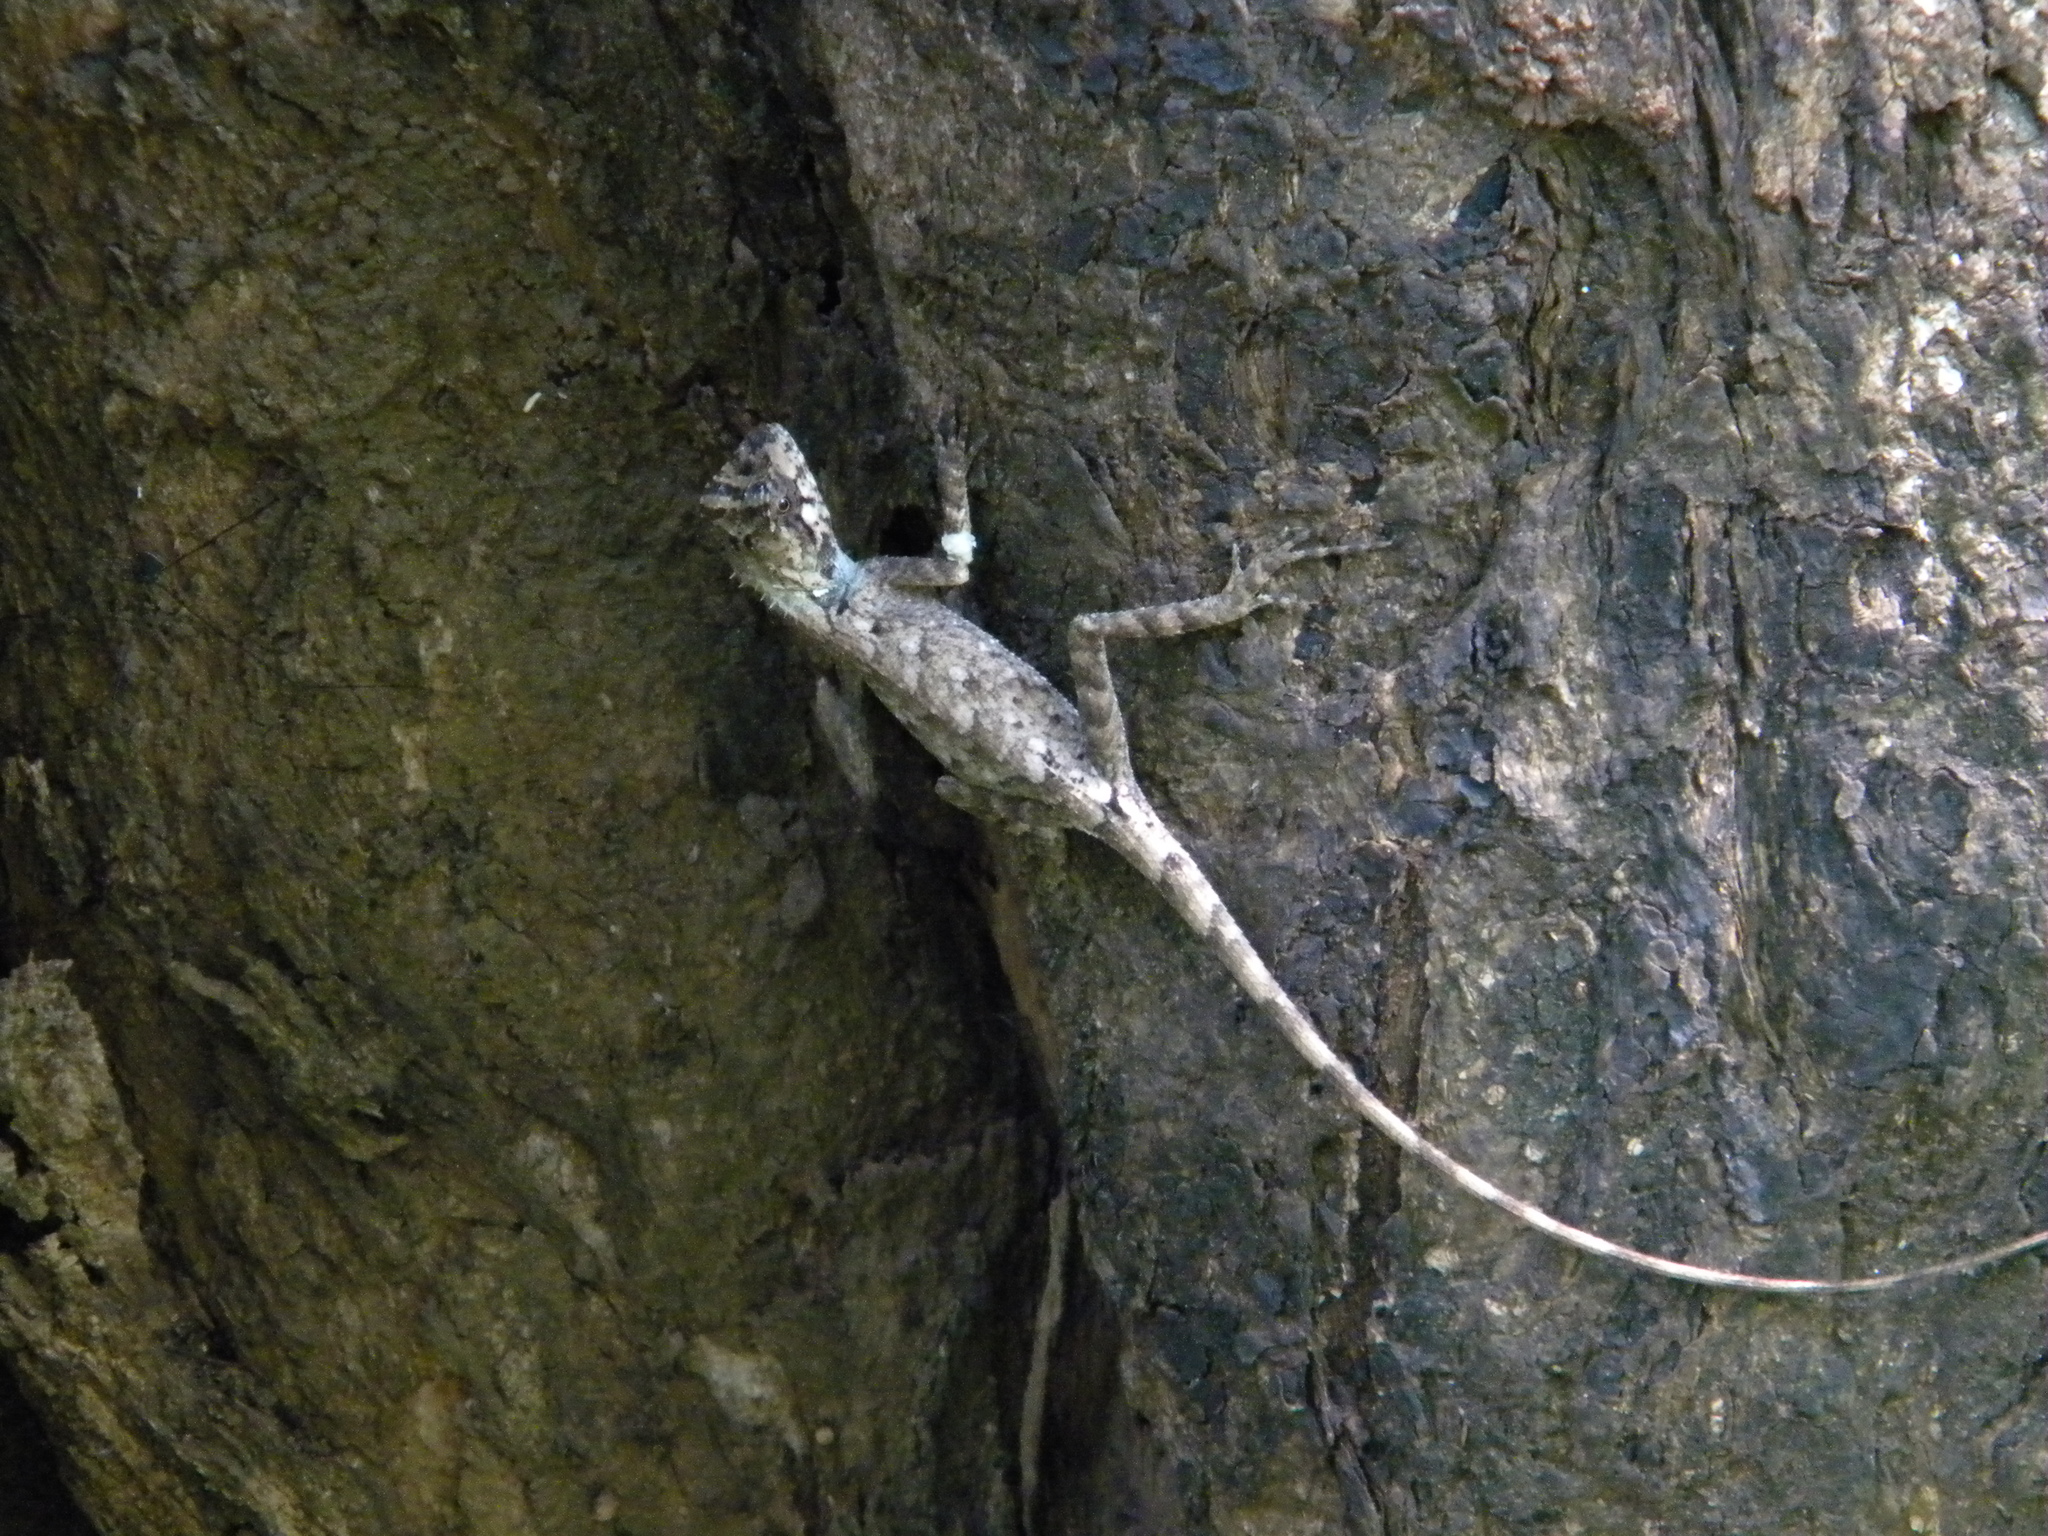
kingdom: Animalia
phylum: Chordata
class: Squamata
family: Agamidae
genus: Monilesaurus
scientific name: Monilesaurus rouxii
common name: Roux's forest lizard
